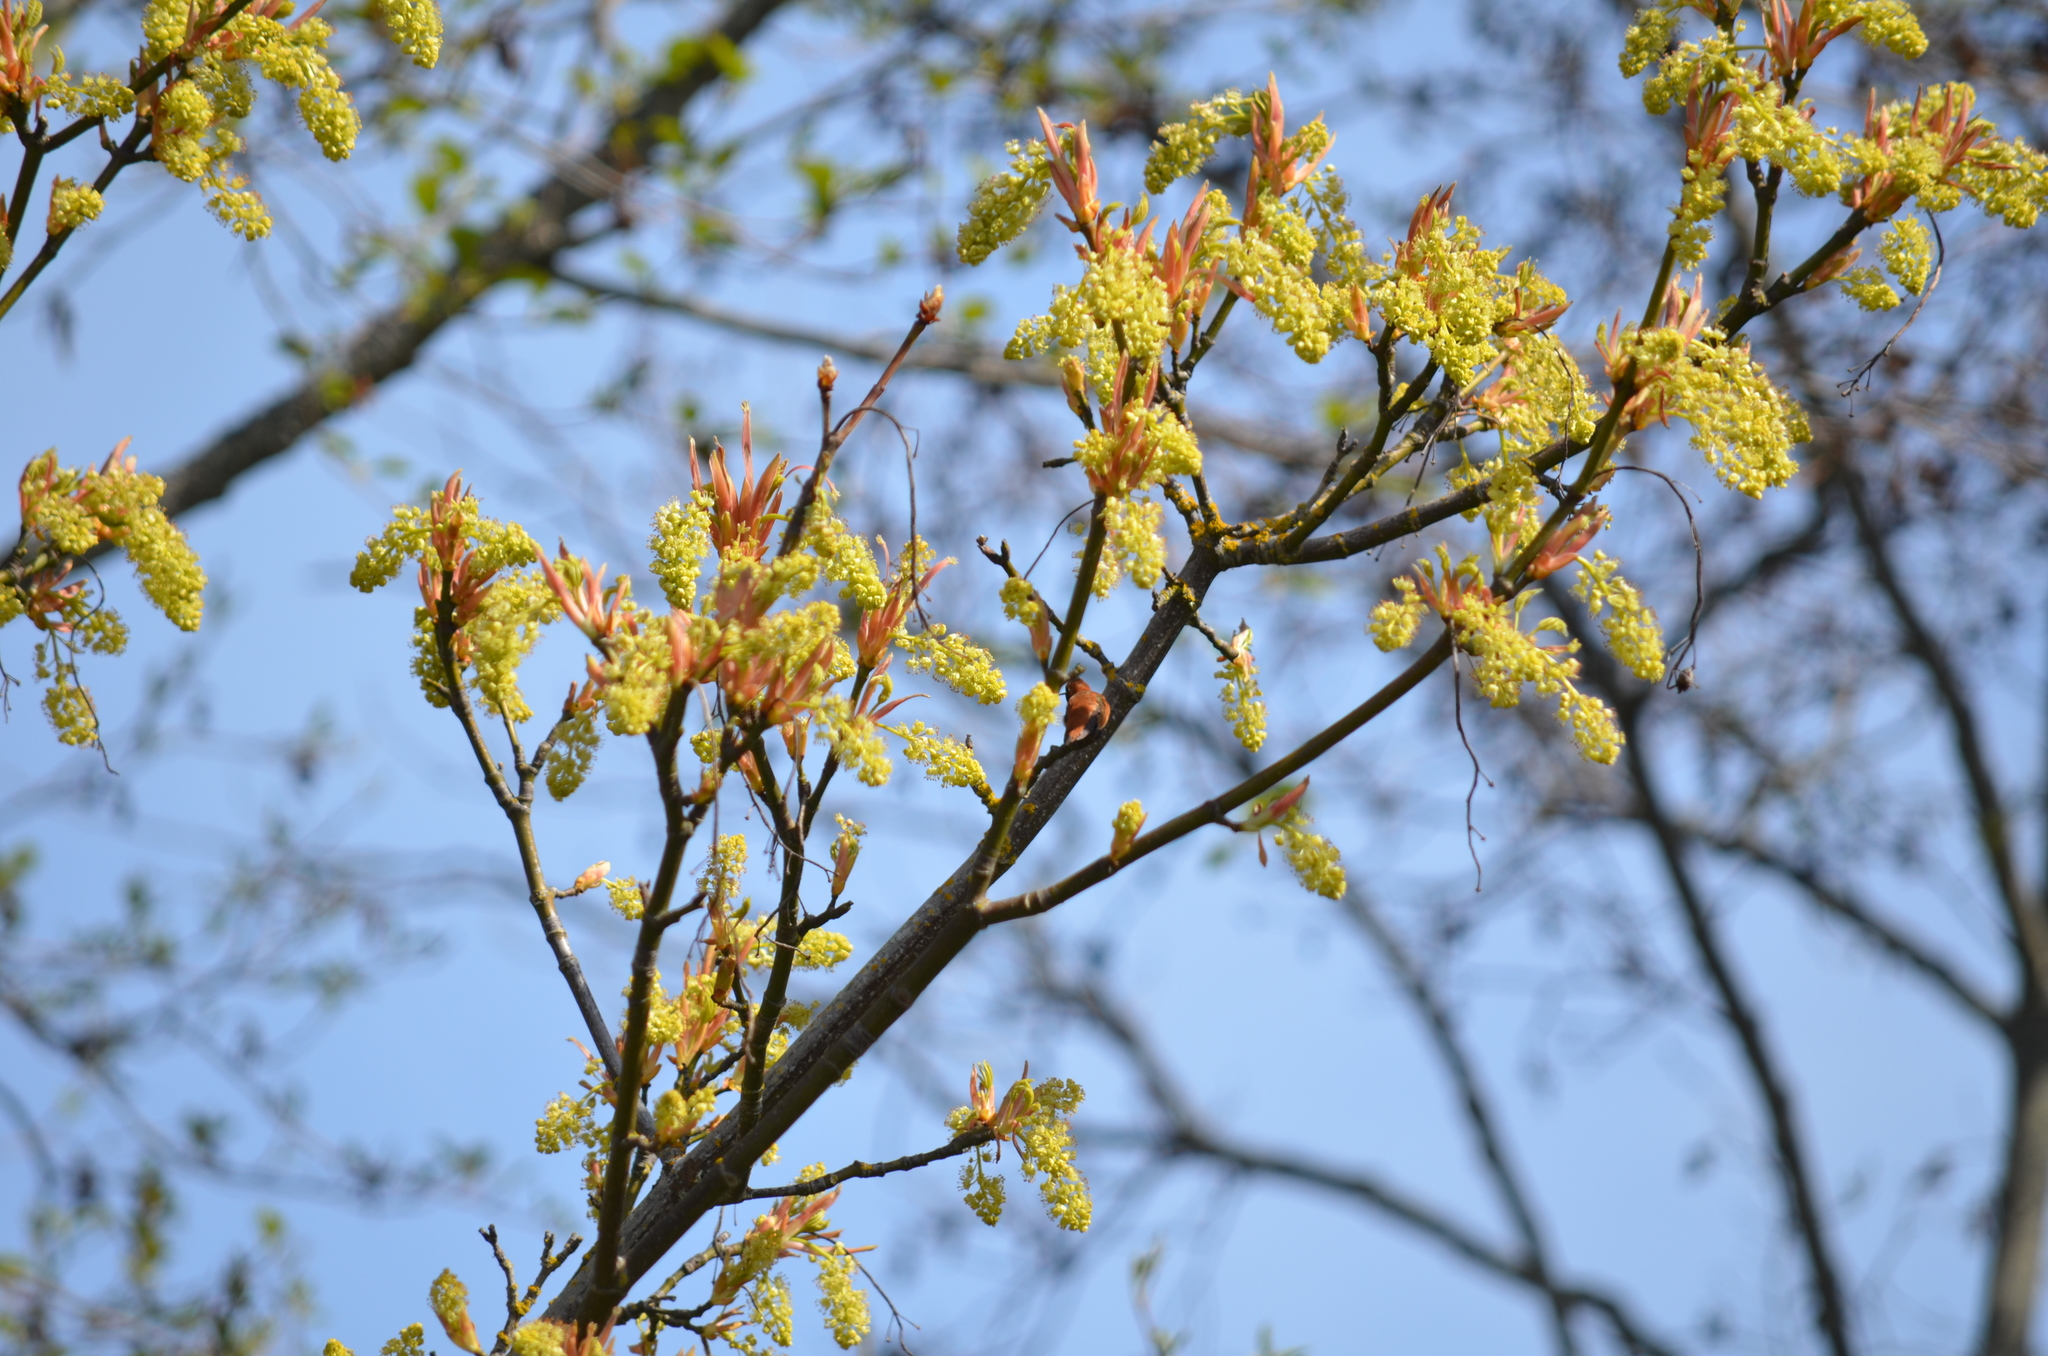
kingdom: Plantae
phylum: Tracheophyta
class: Magnoliopsida
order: Sapindales
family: Sapindaceae
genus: Acer
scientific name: Acer macrophyllum
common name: Oregon maple
